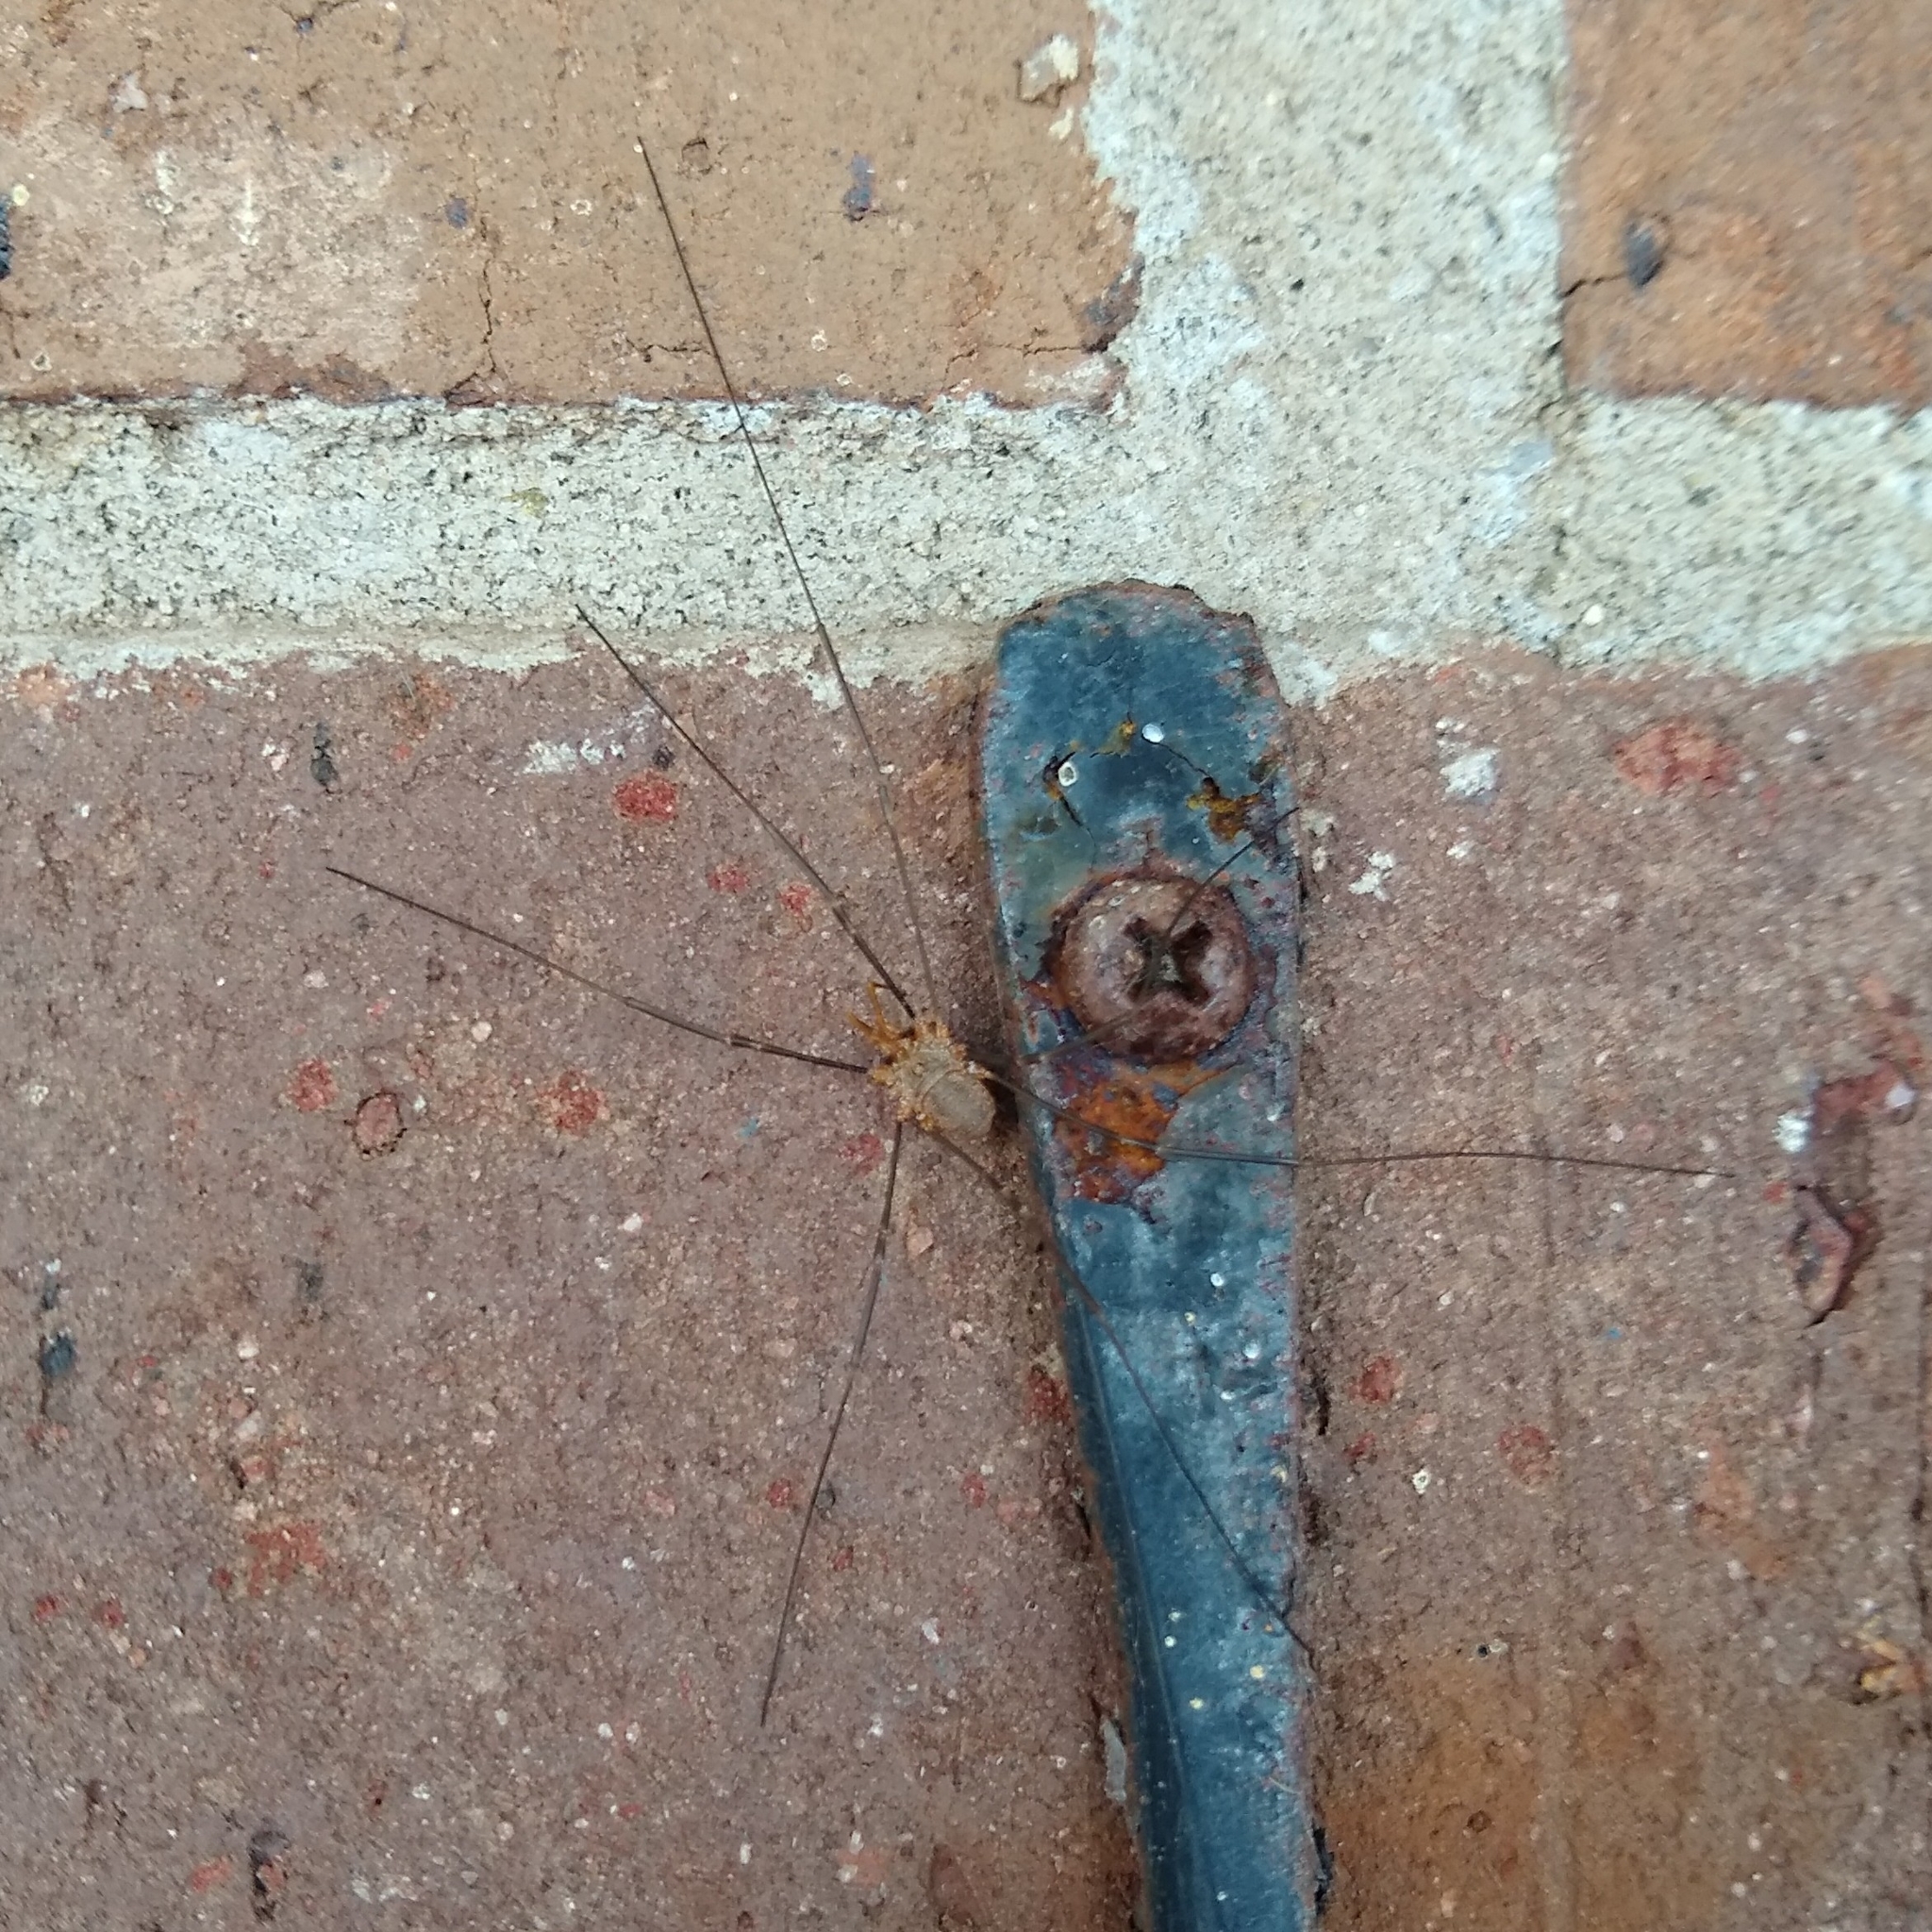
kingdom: Animalia
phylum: Arthropoda
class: Arachnida
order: Opiliones
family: Phalangiidae
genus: Phalangium
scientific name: Phalangium opilio
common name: Daddy longleg
